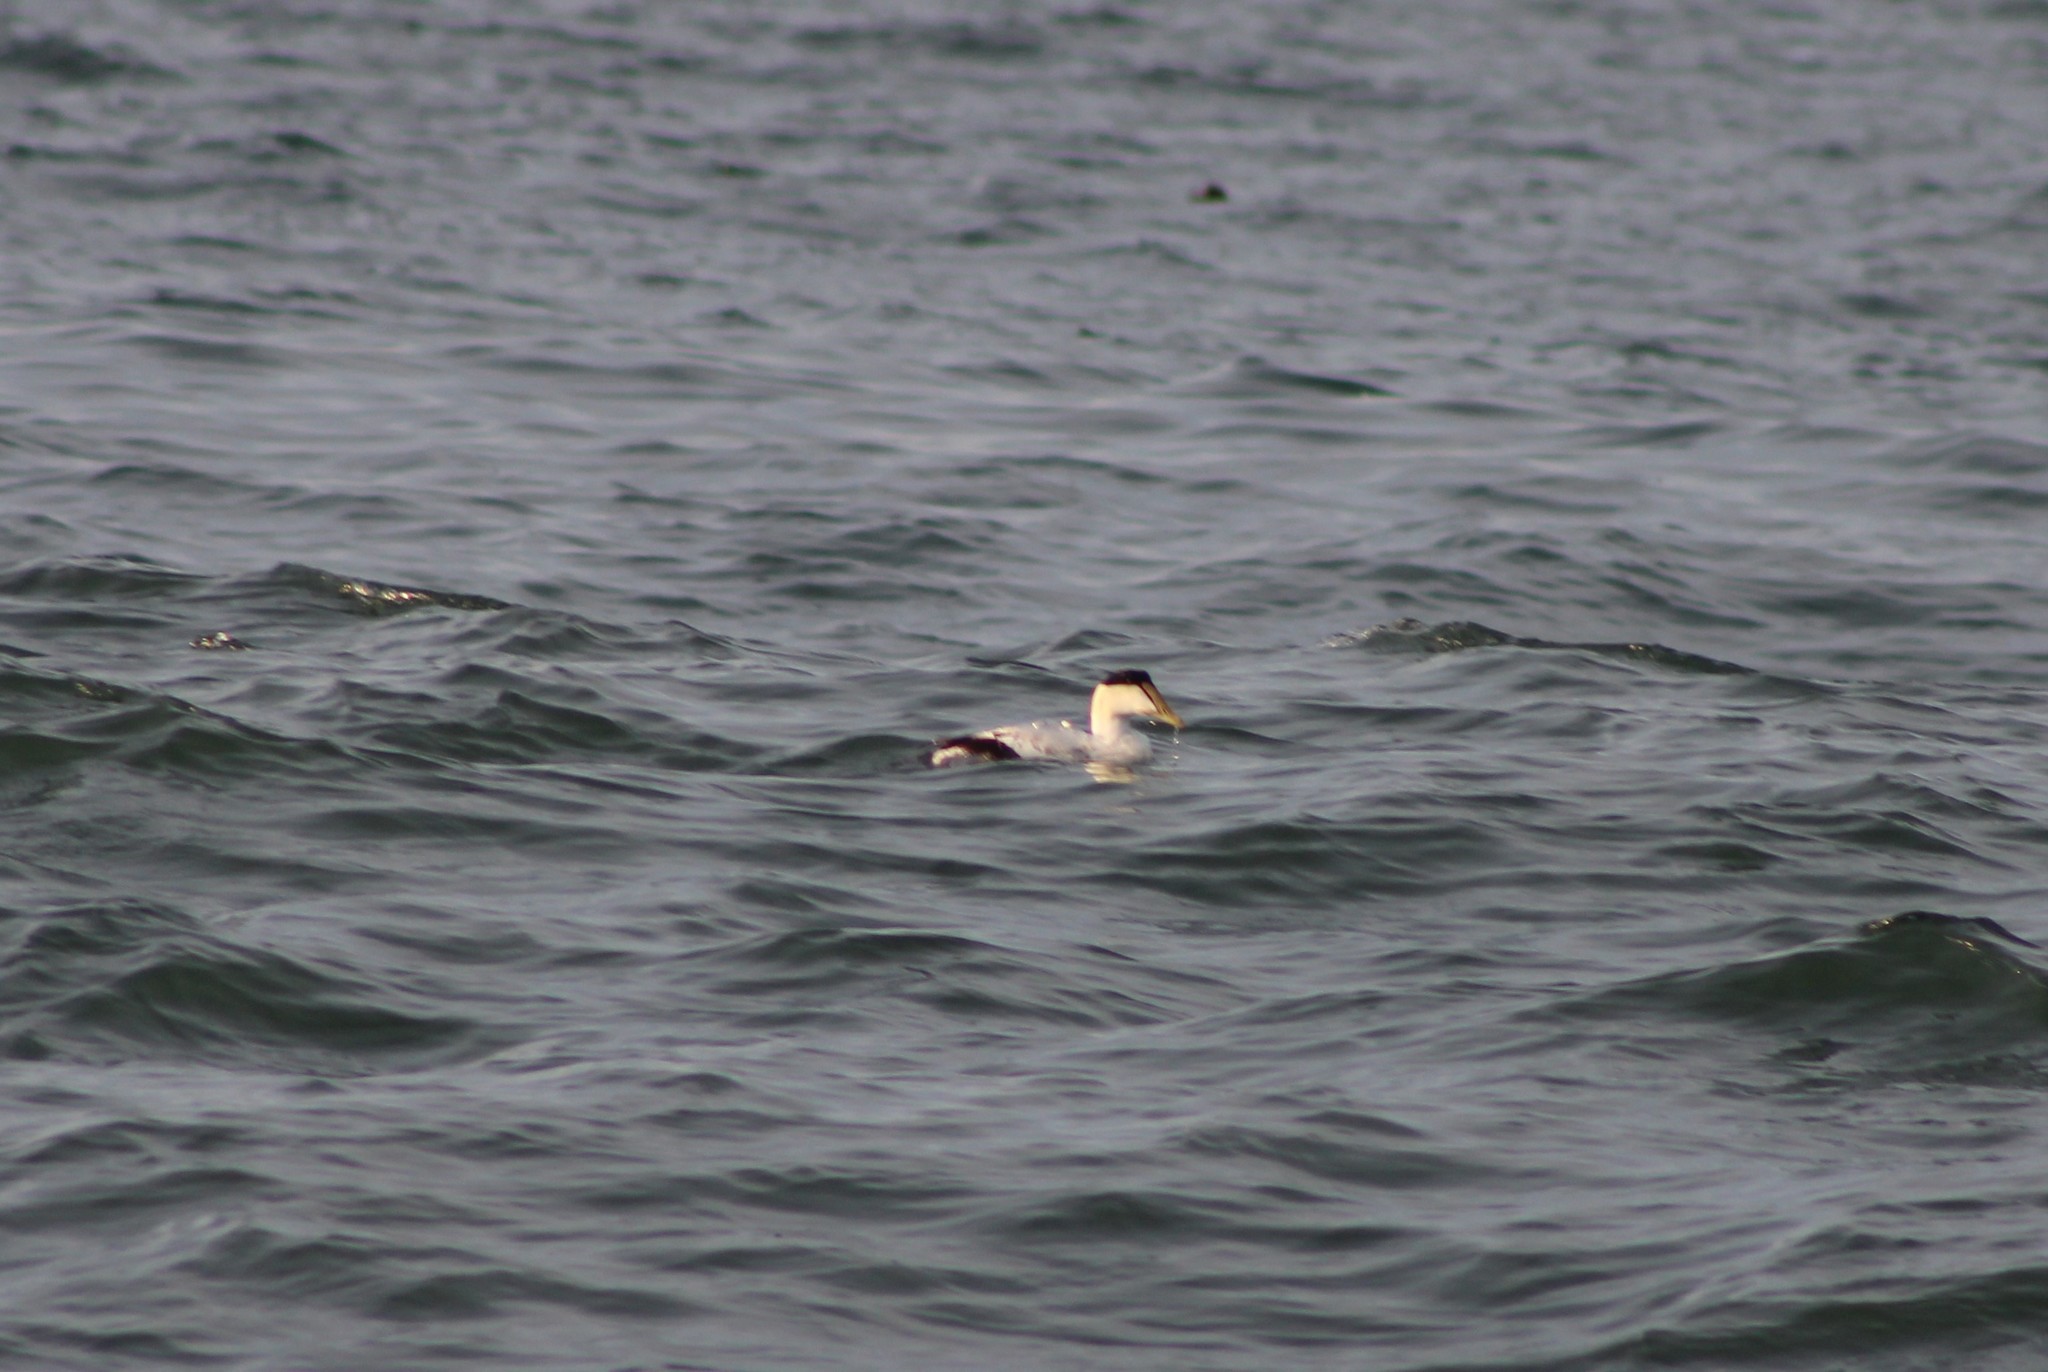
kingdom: Animalia
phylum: Chordata
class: Aves
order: Anseriformes
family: Anatidae
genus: Somateria
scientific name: Somateria mollissima
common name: Common eider
